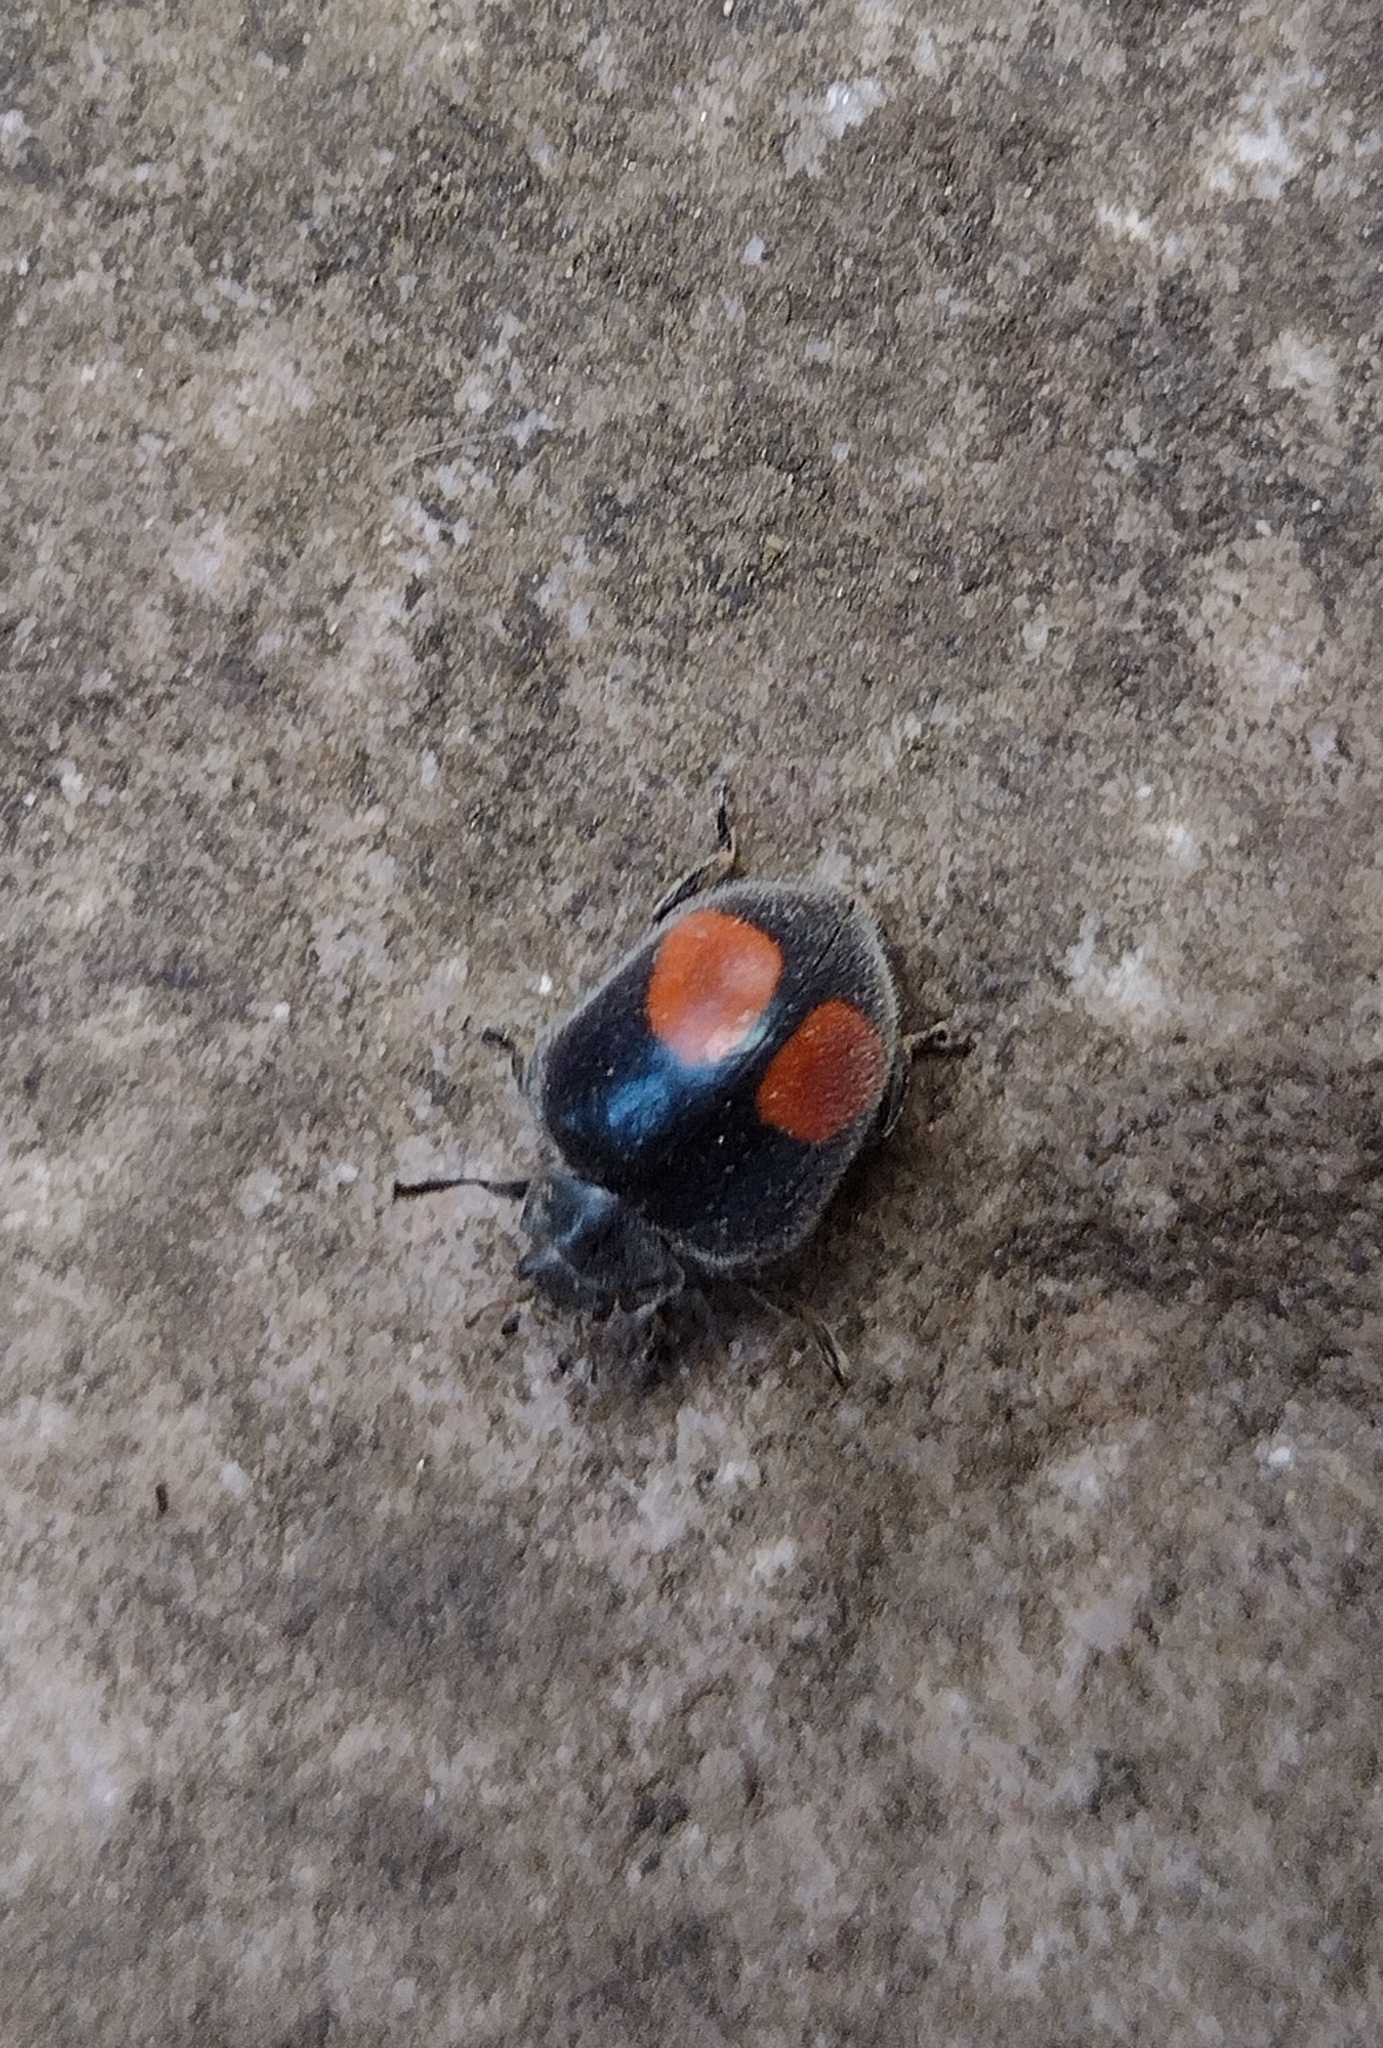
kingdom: Animalia
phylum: Arthropoda
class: Insecta
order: Coleoptera
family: Coccinellidae
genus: Epilachna
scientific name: Epilachna sellata
